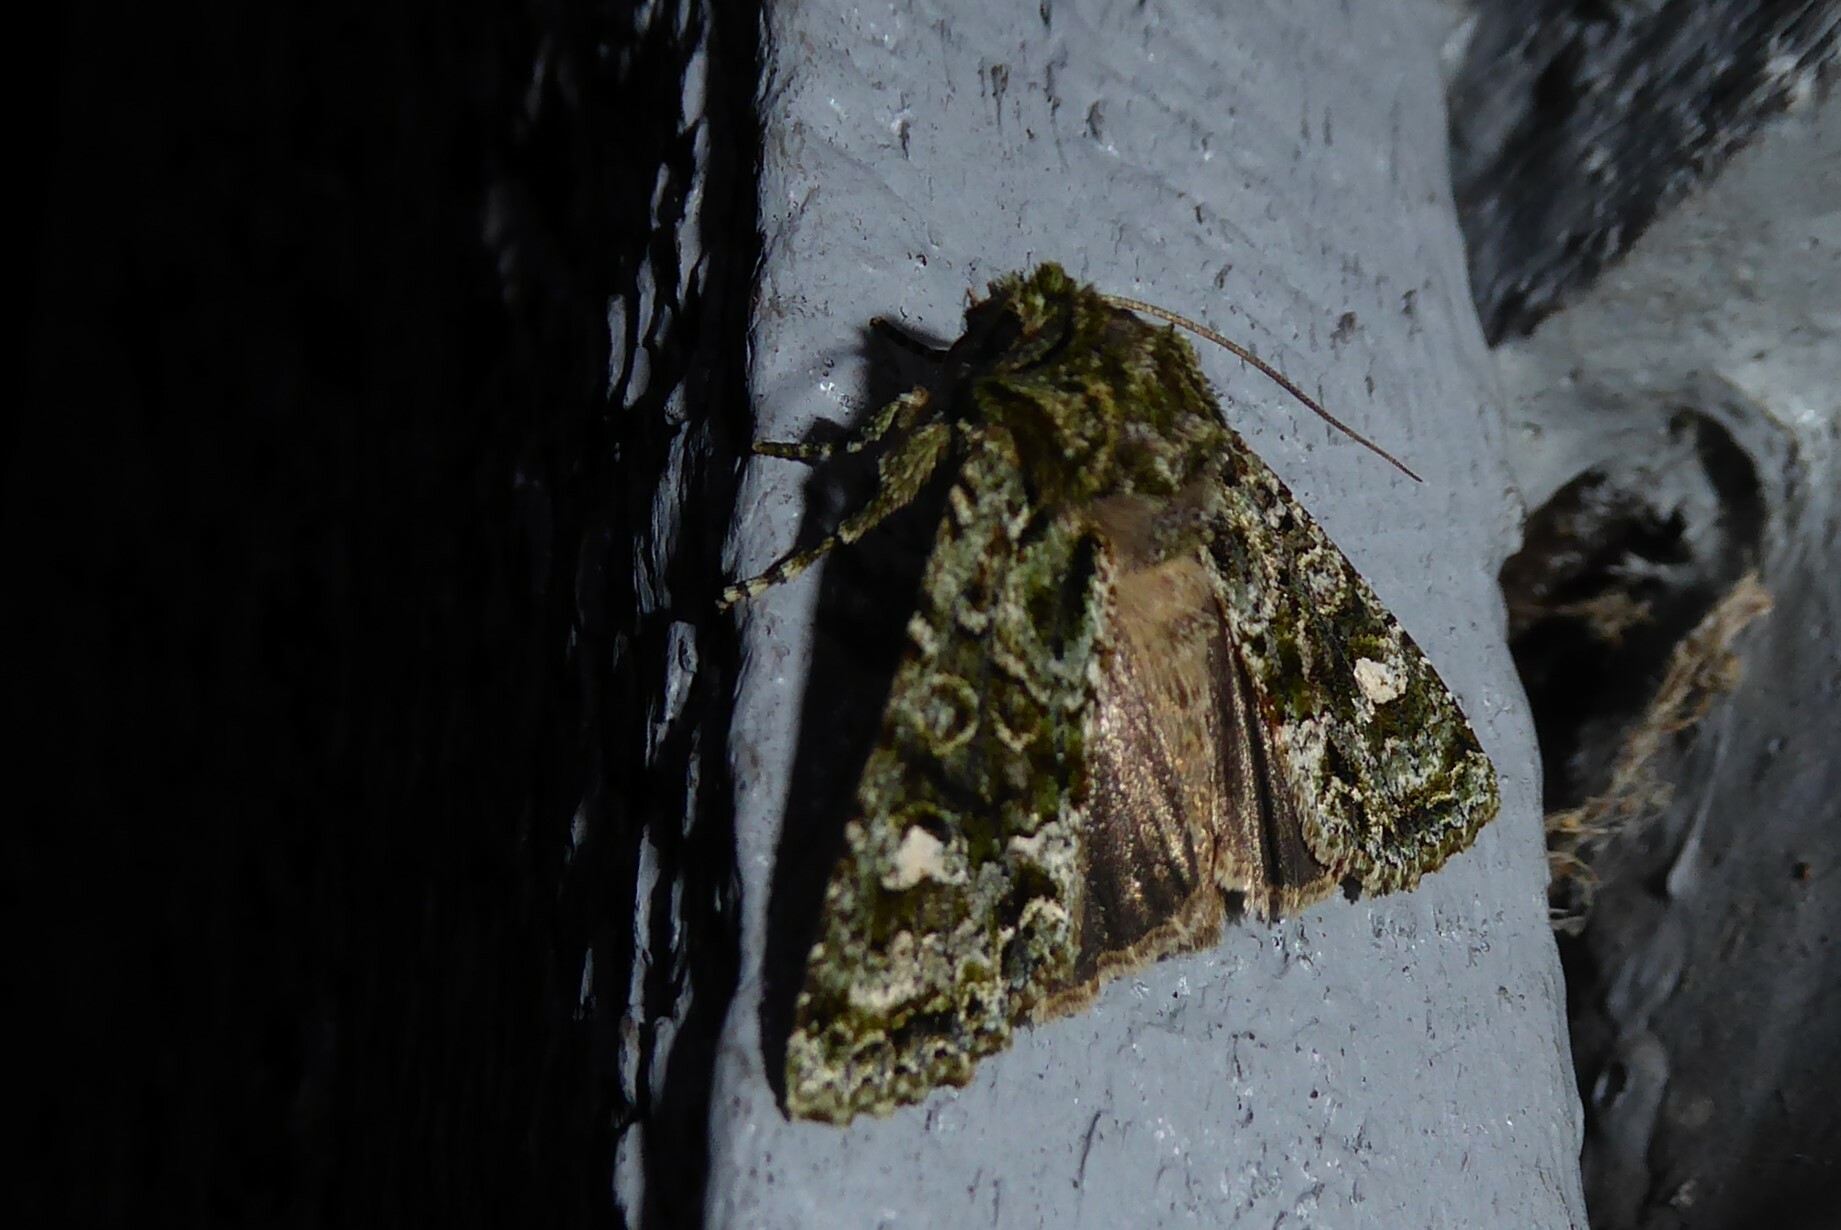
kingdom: Animalia
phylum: Arthropoda
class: Insecta
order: Lepidoptera
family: Noctuidae
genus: Ichneutica
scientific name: Ichneutica
